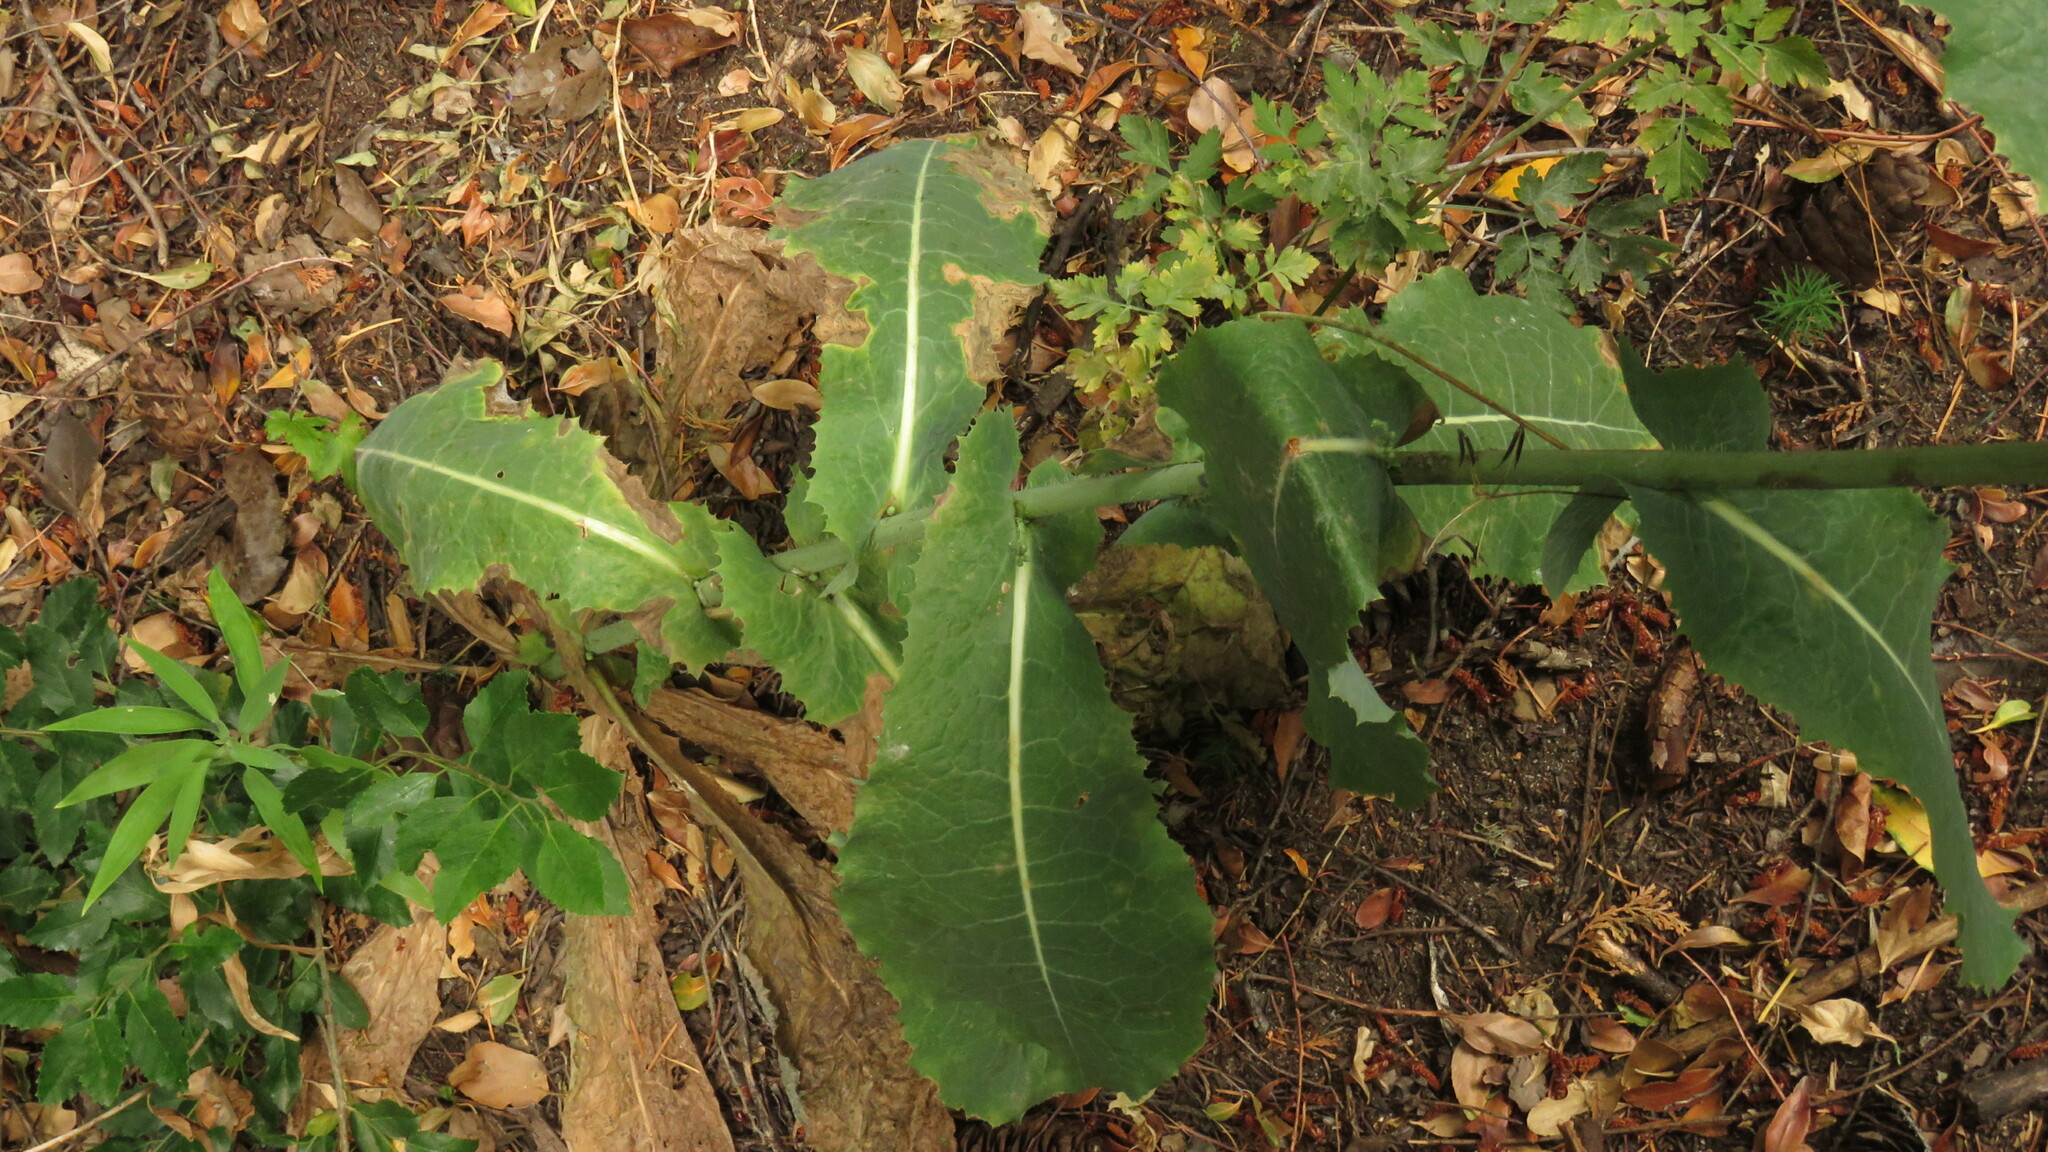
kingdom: Plantae
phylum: Tracheophyta
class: Magnoliopsida
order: Asterales
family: Asteraceae
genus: Lactuca
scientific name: Lactuca virosa
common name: Great lettuce
